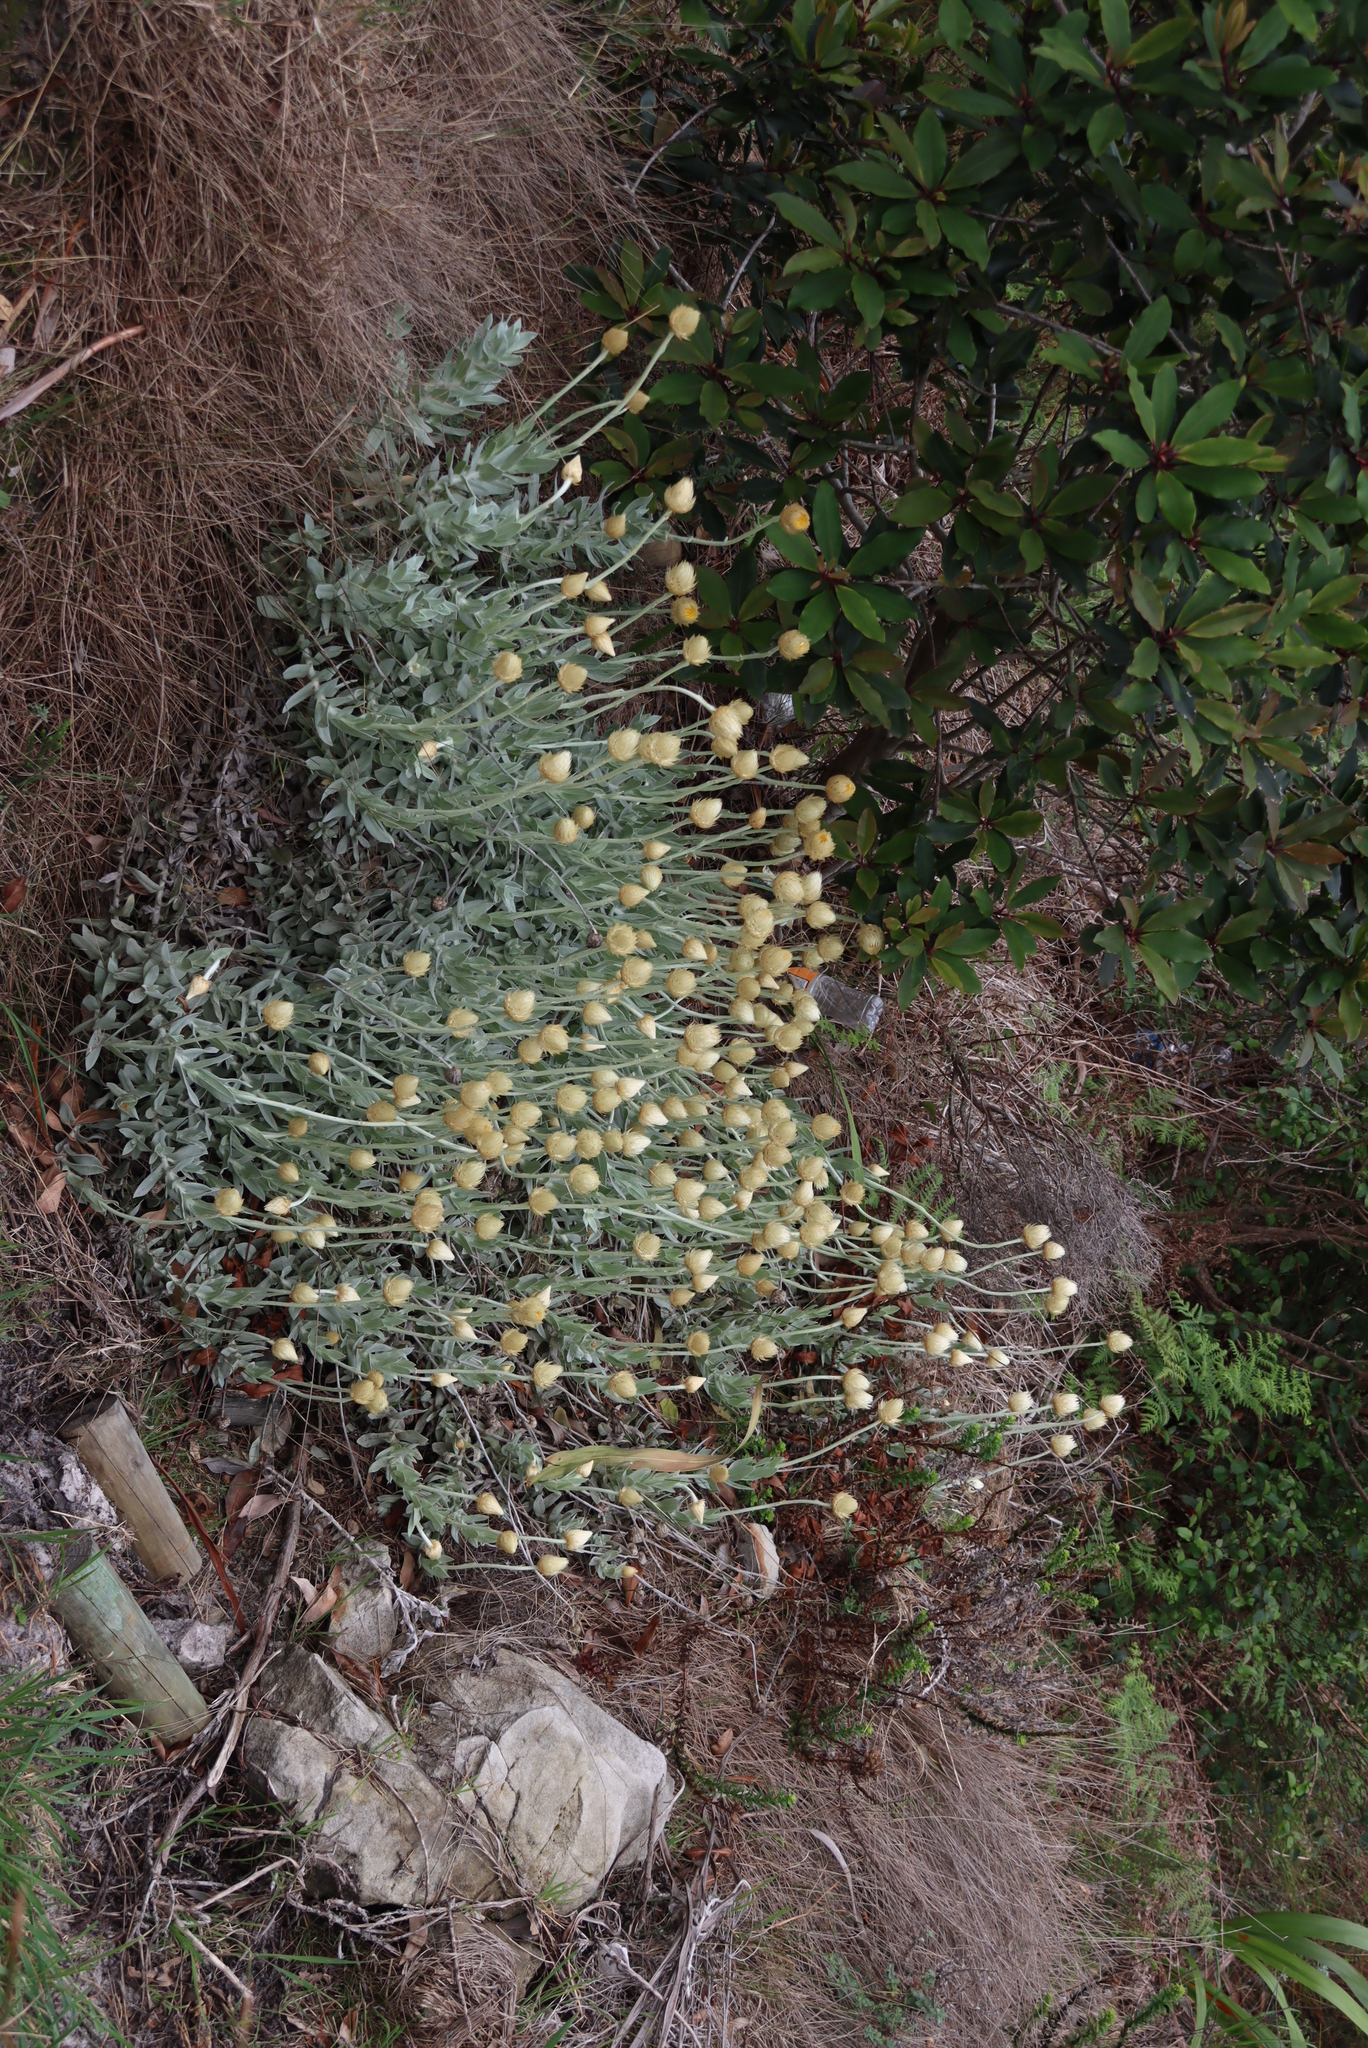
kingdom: Plantae
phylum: Tracheophyta
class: Magnoliopsida
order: Asterales
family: Asteraceae
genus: Syncarpha
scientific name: Syncarpha speciosissima
